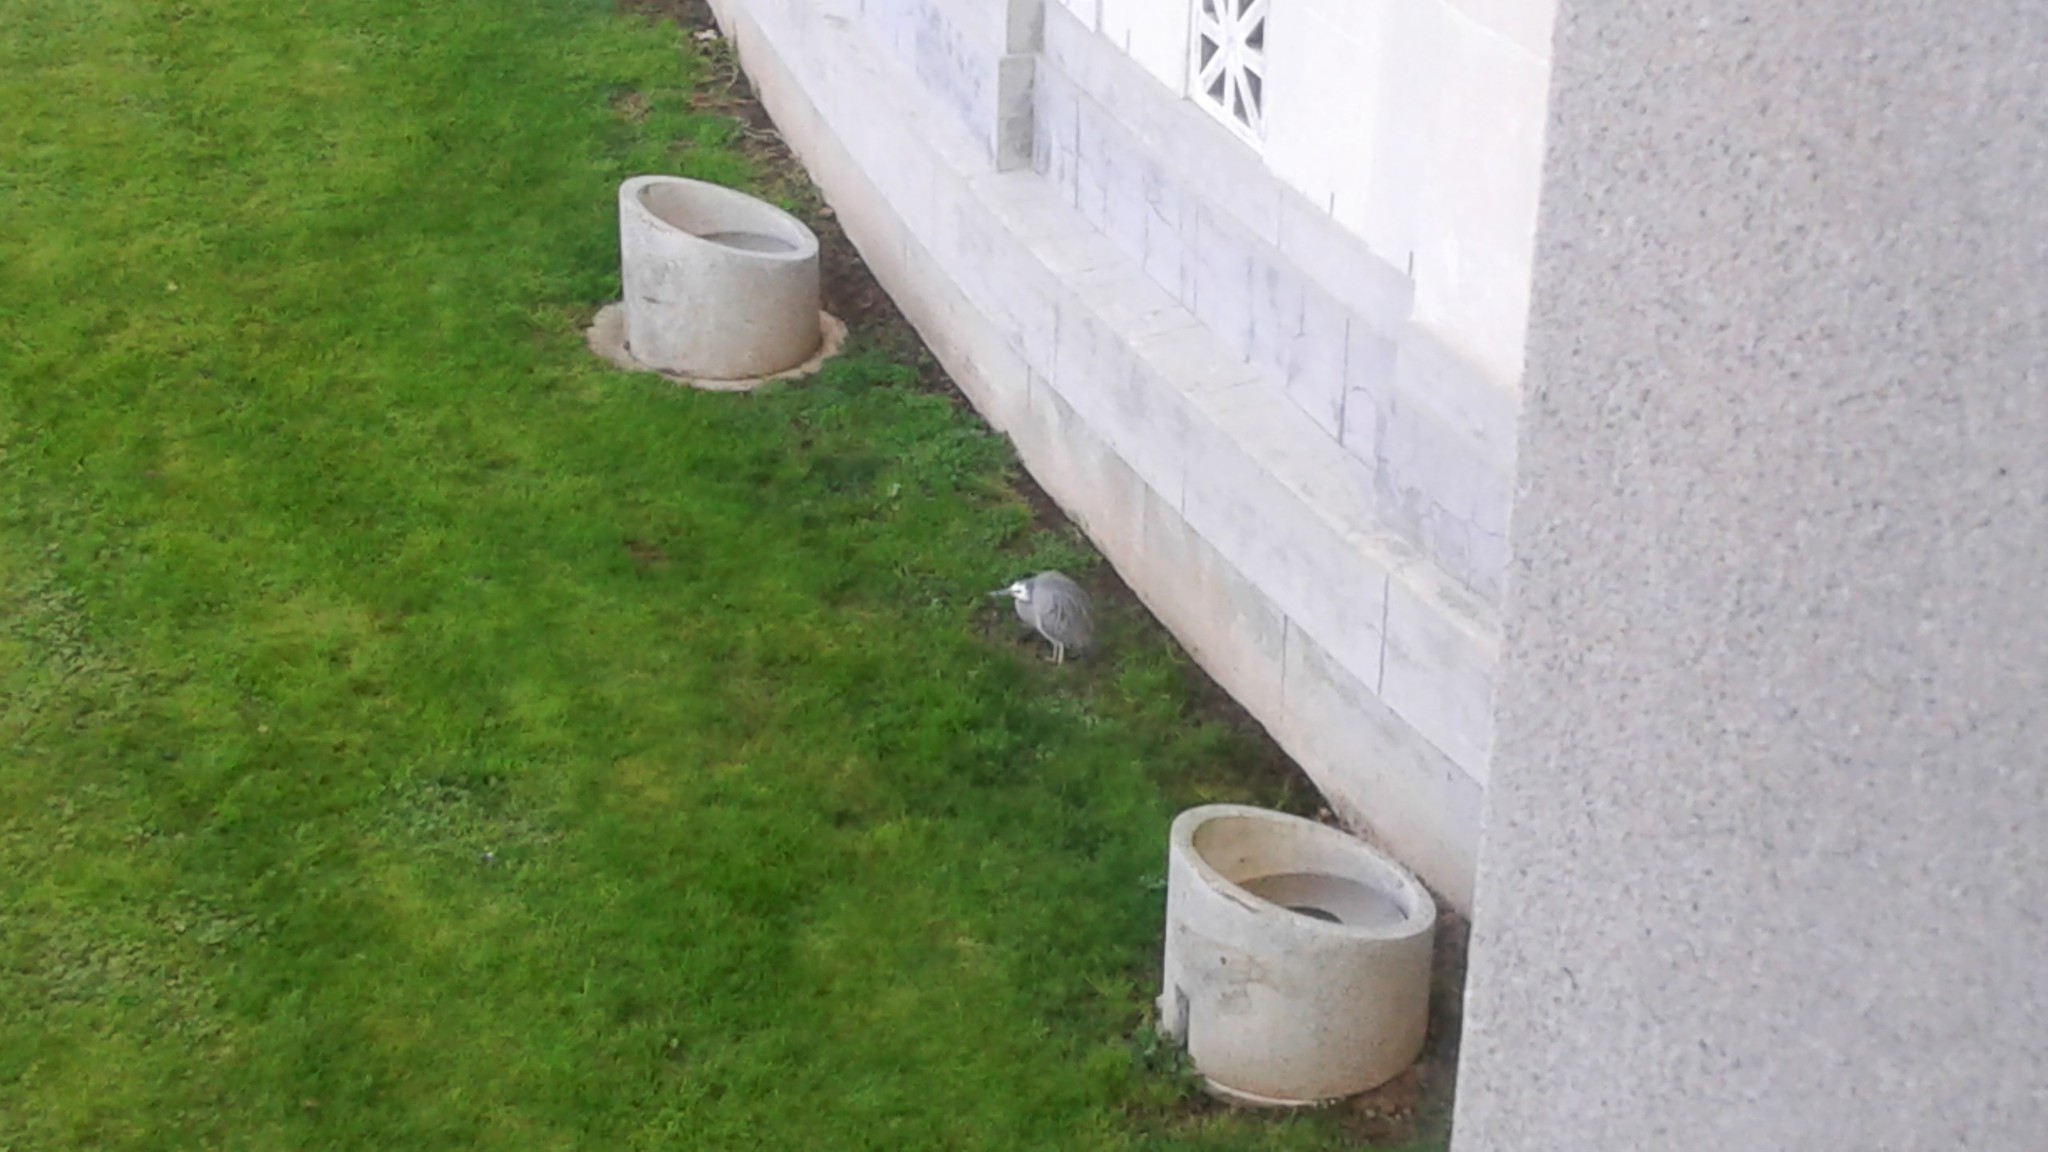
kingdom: Animalia
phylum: Chordata
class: Aves
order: Pelecaniformes
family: Ardeidae
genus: Egretta
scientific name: Egretta novaehollandiae
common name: White-faced heron
